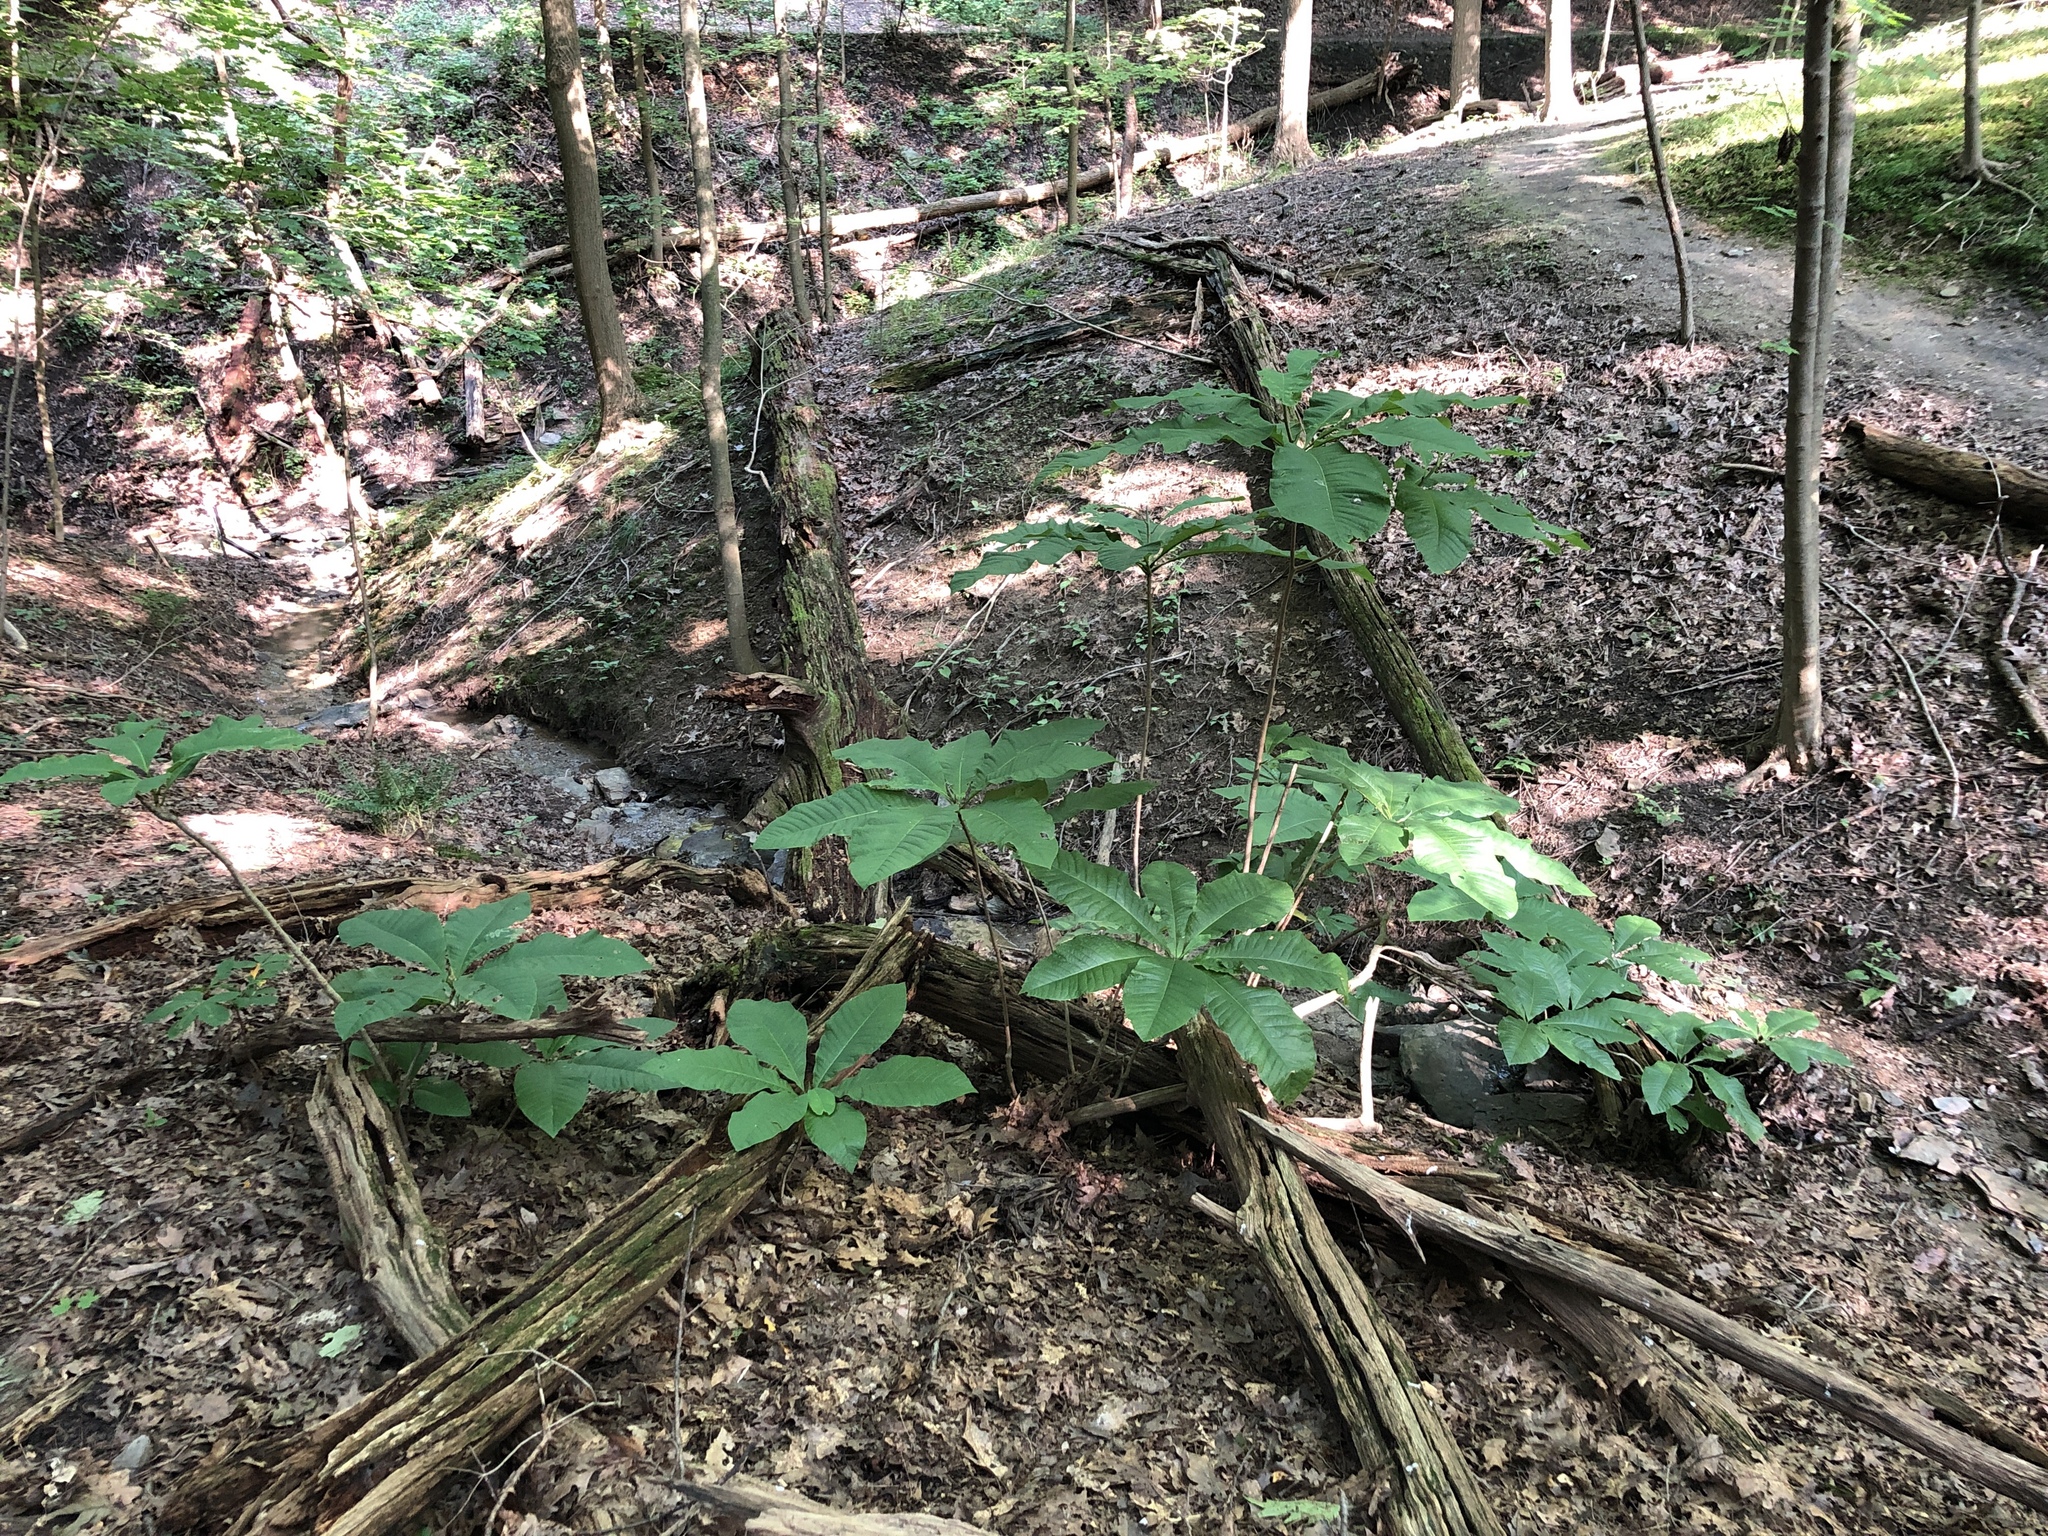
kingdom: Plantae
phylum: Tracheophyta
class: Magnoliopsida
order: Magnoliales
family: Magnoliaceae
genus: Magnolia
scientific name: Magnolia tripetala
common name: Umbrella magnolia
